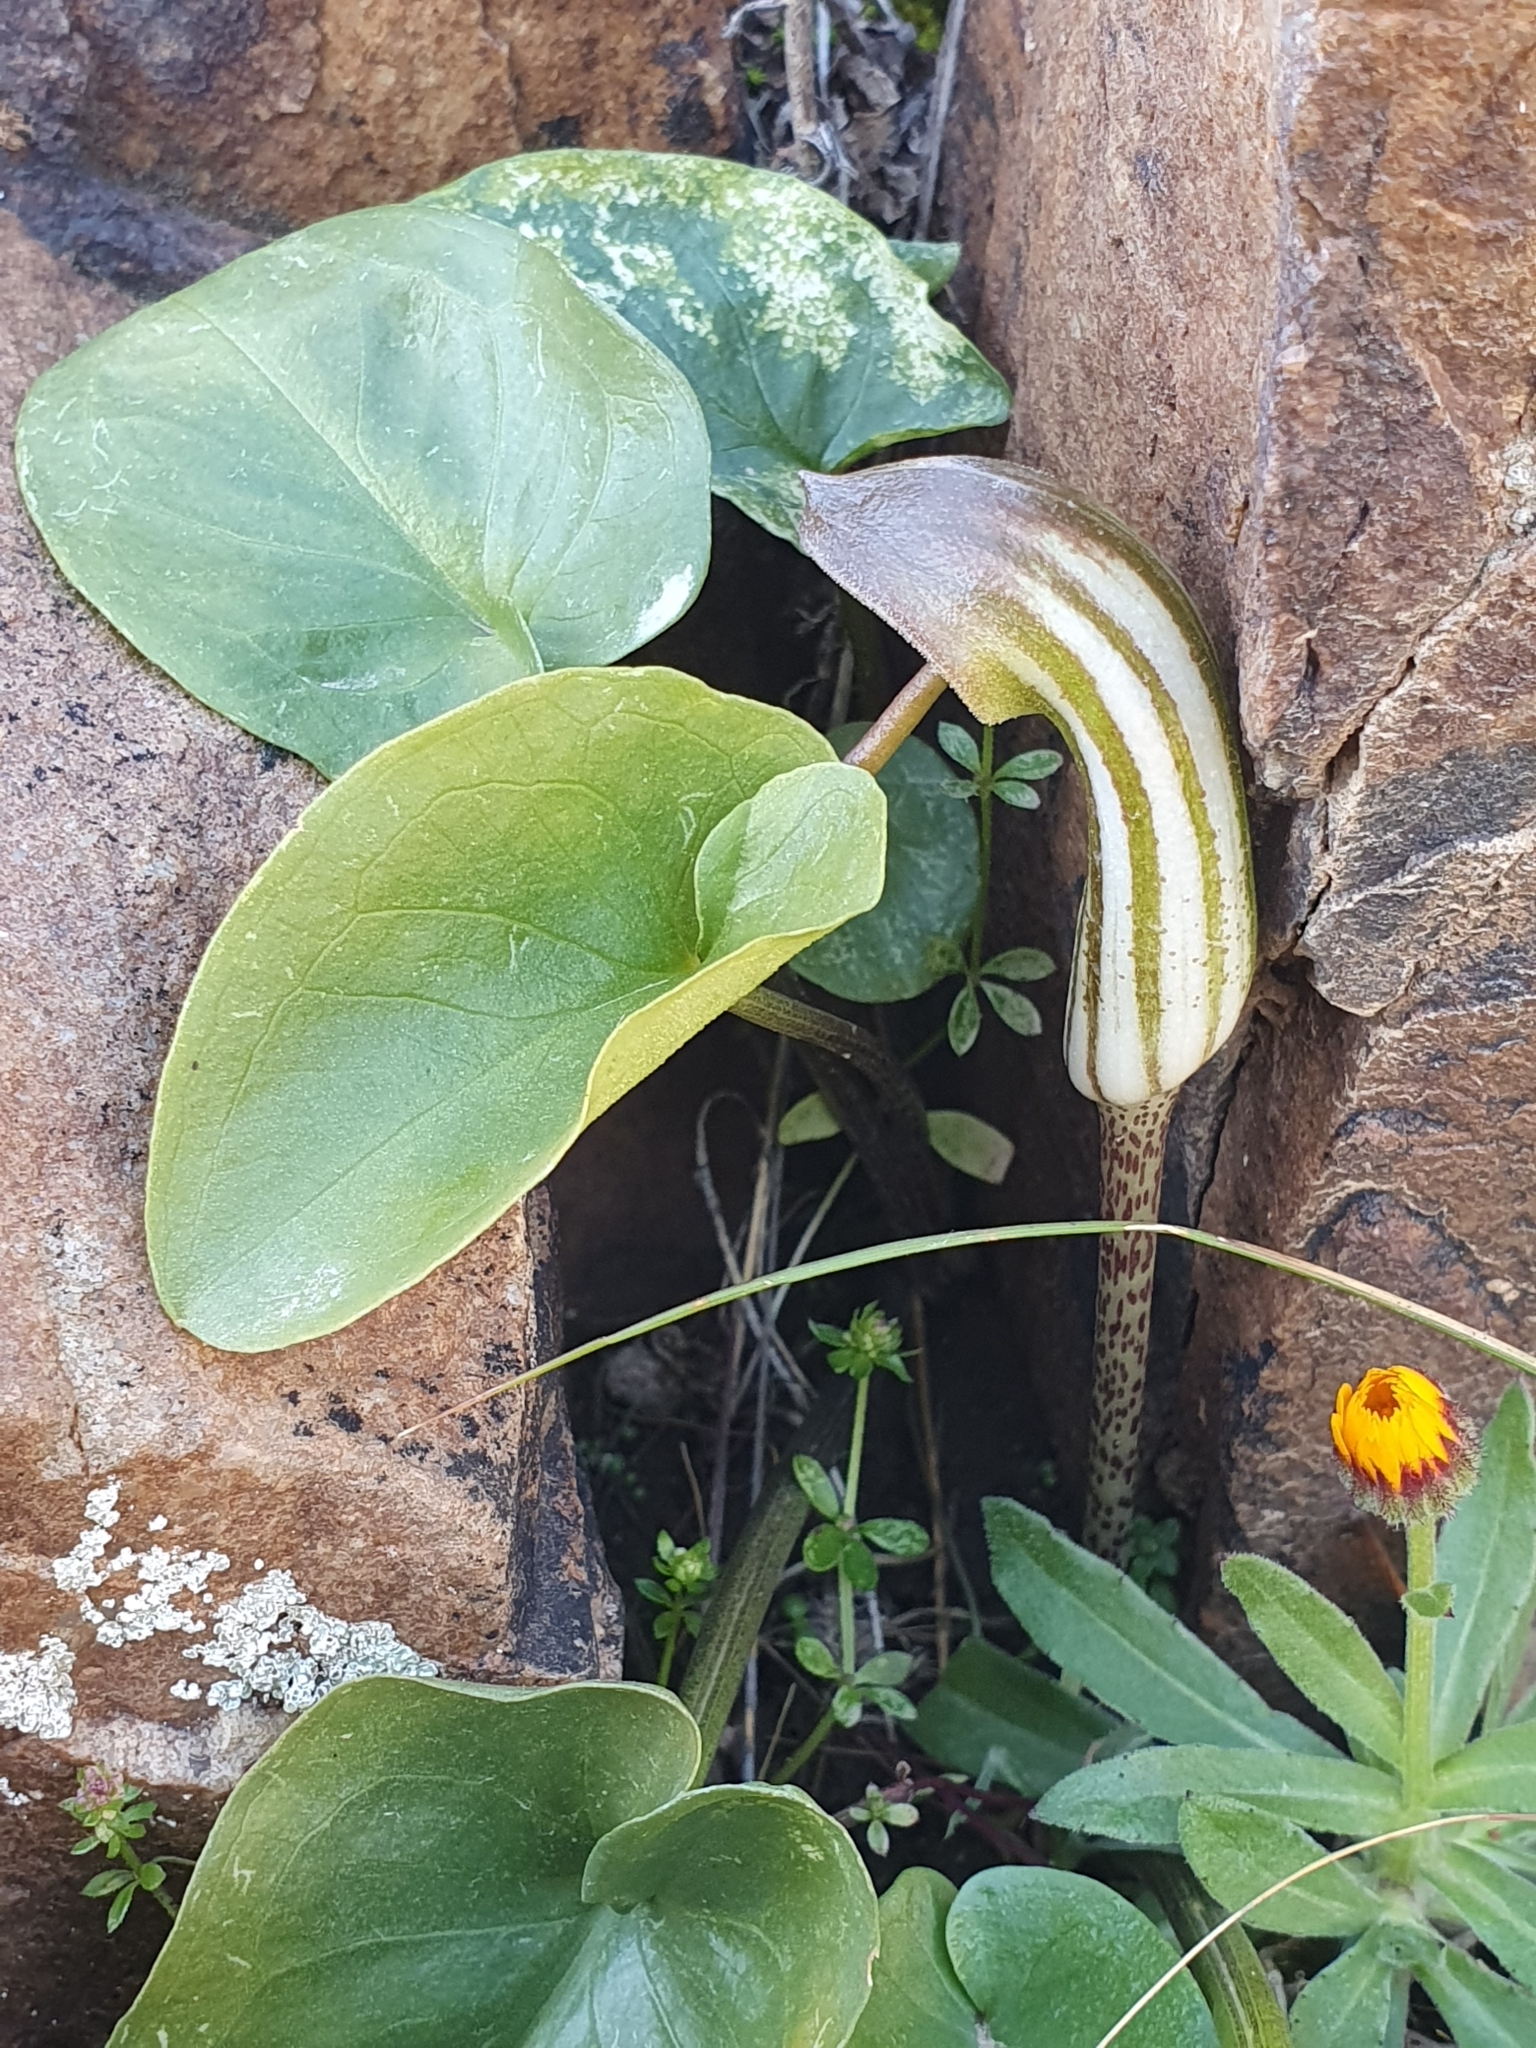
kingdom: Plantae
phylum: Tracheophyta
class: Liliopsida
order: Alismatales
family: Araceae
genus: Arisarum
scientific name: Arisarum vulgare
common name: Common arisarum
